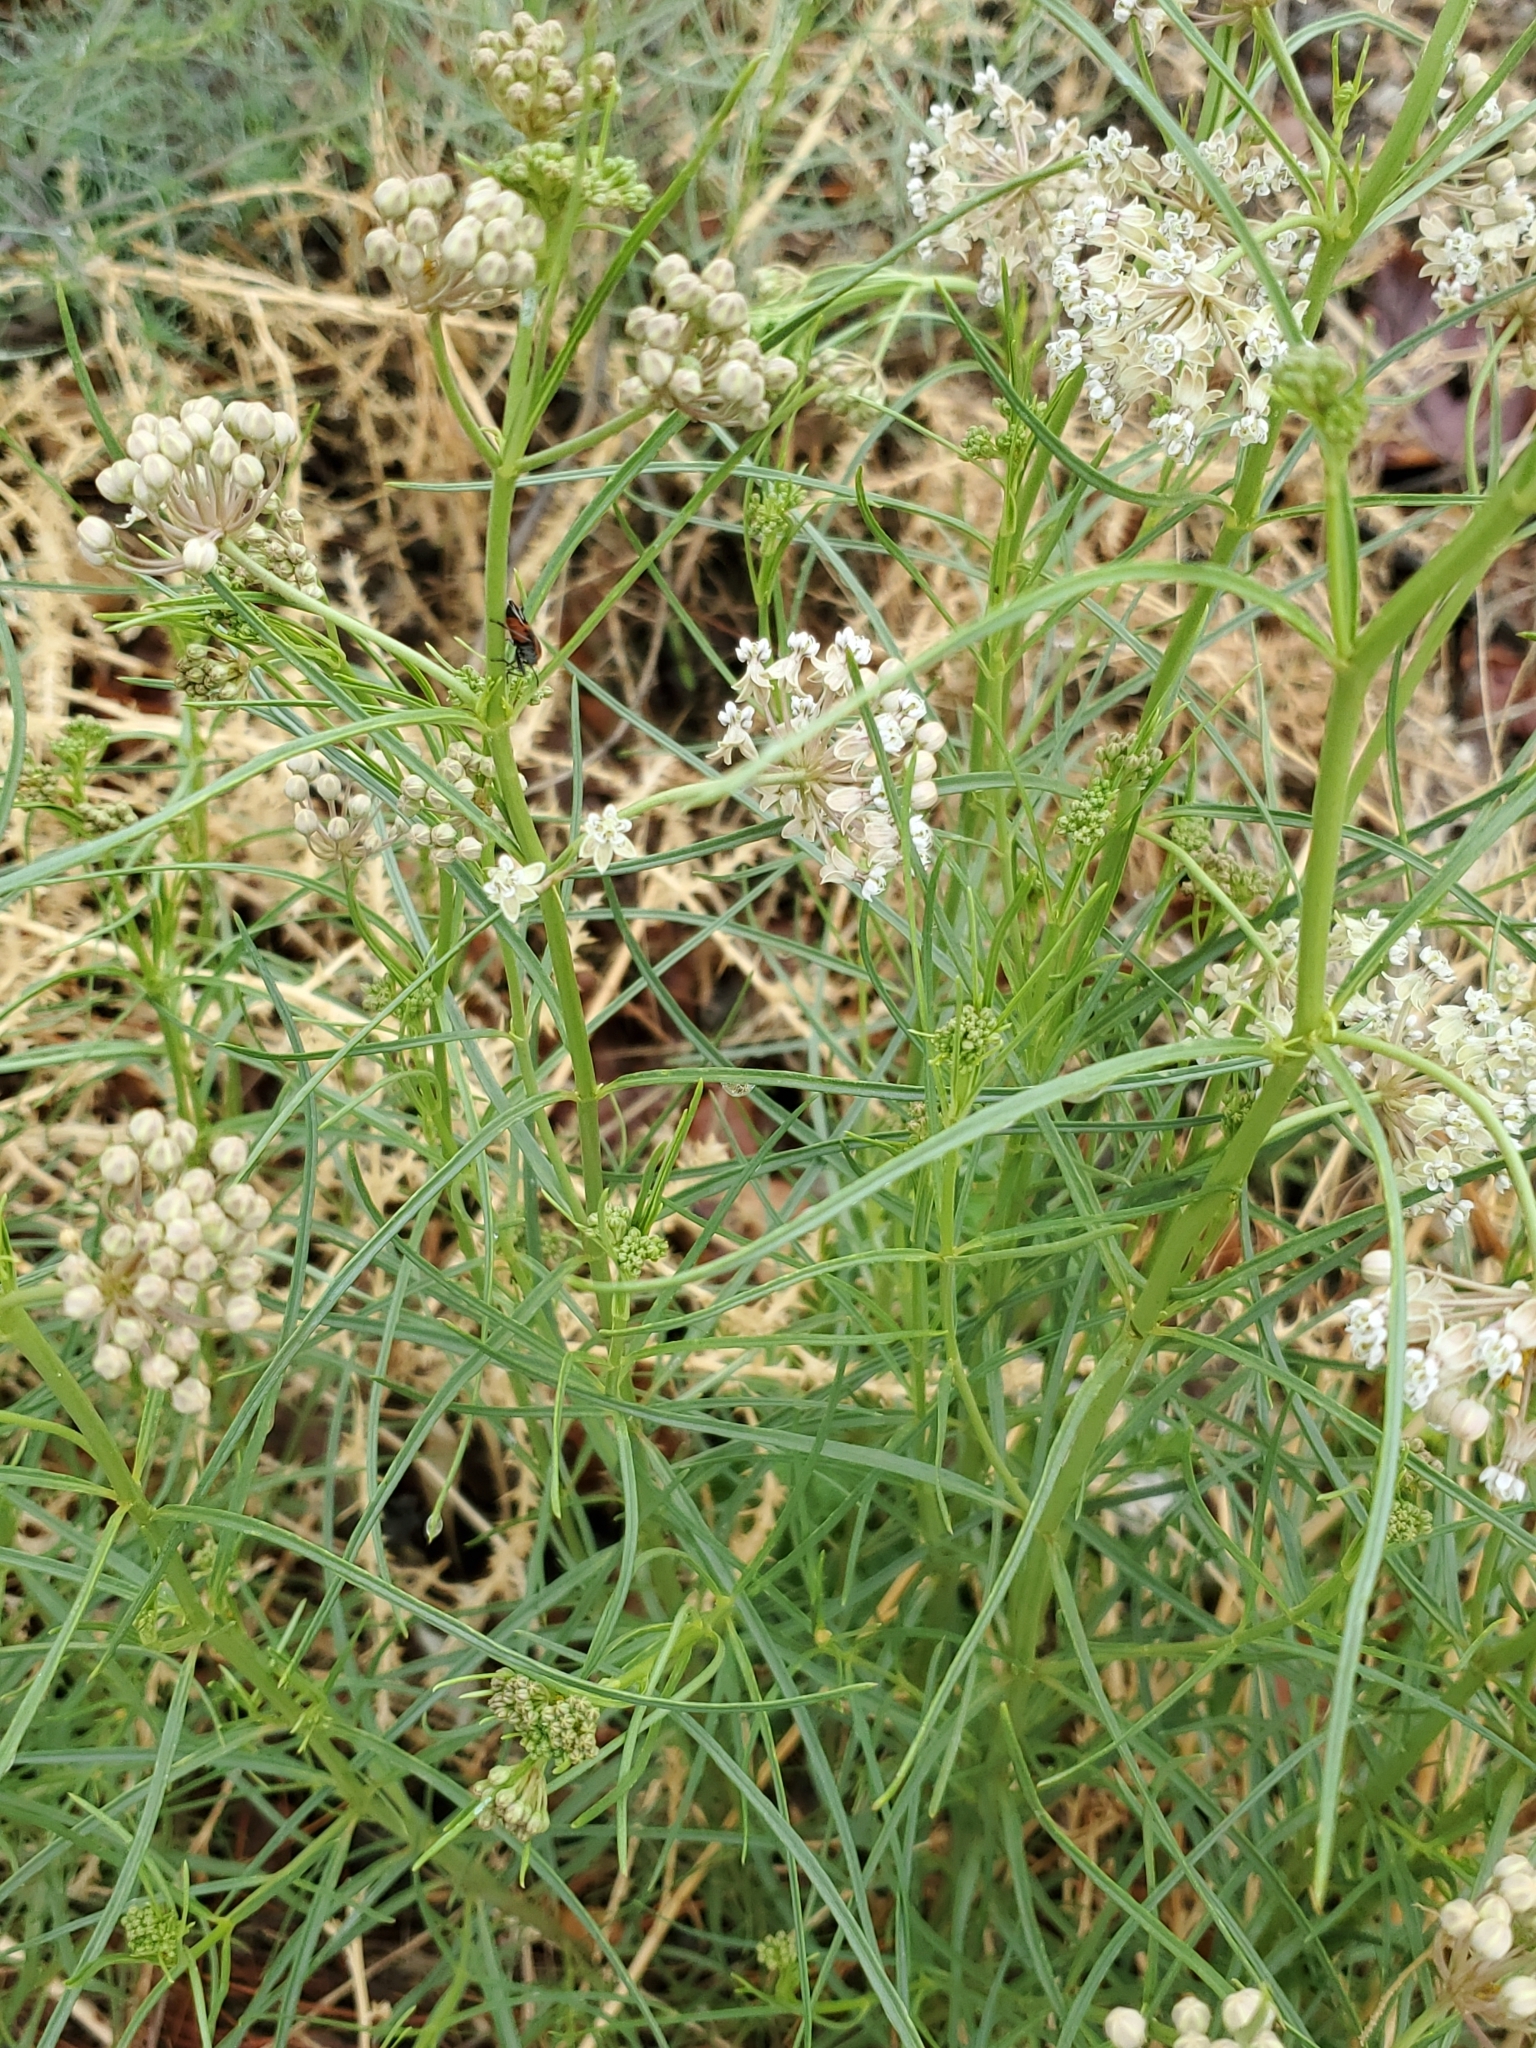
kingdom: Plantae
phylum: Tracheophyta
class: Magnoliopsida
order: Gentianales
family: Apocynaceae
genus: Asclepias
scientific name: Asclepias subverticillata
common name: Horsetail milkweed
